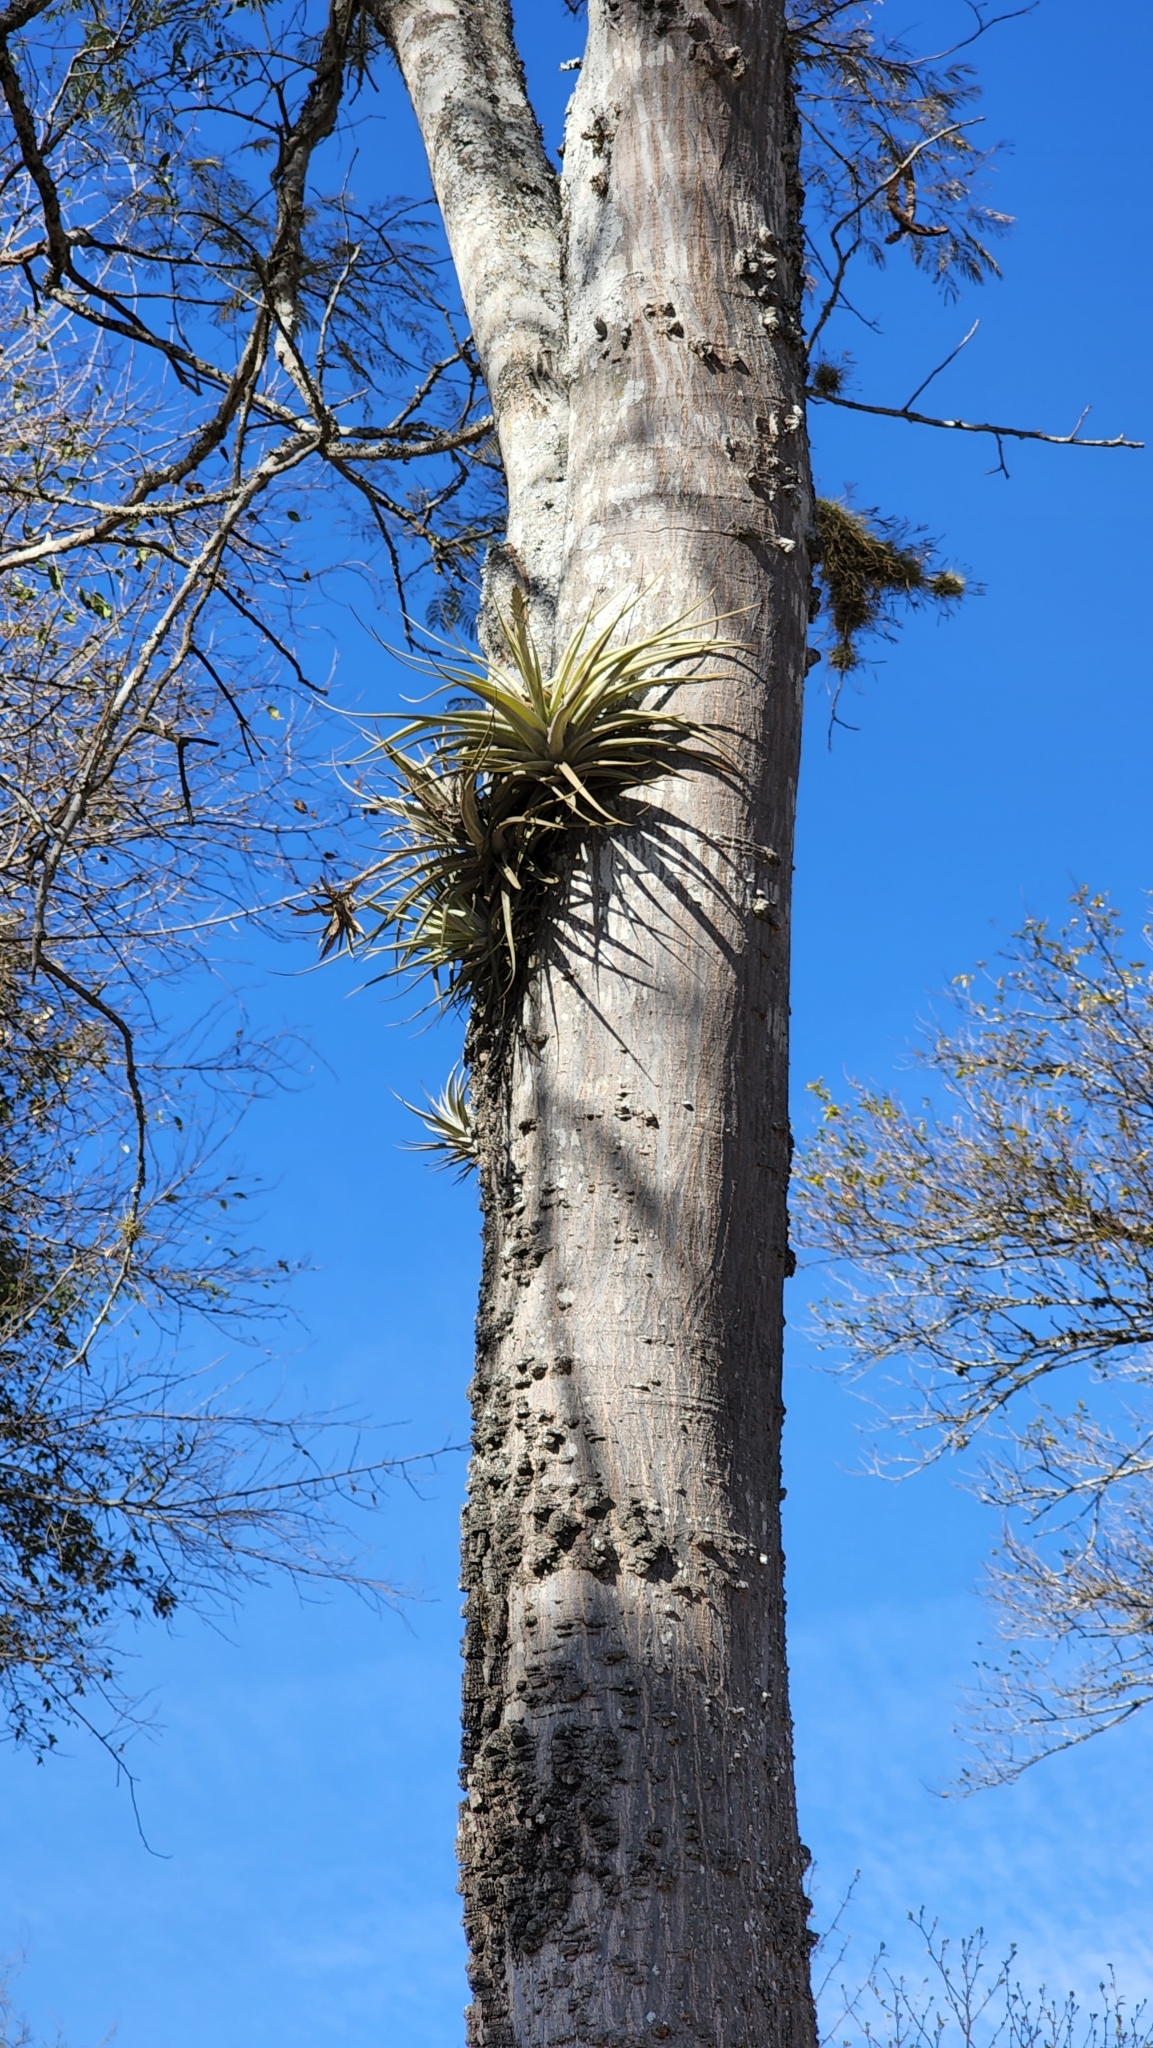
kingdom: Plantae
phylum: Tracheophyta
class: Liliopsida
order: Poales
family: Bromeliaceae
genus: Tillandsia
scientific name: Tillandsia didisticha
